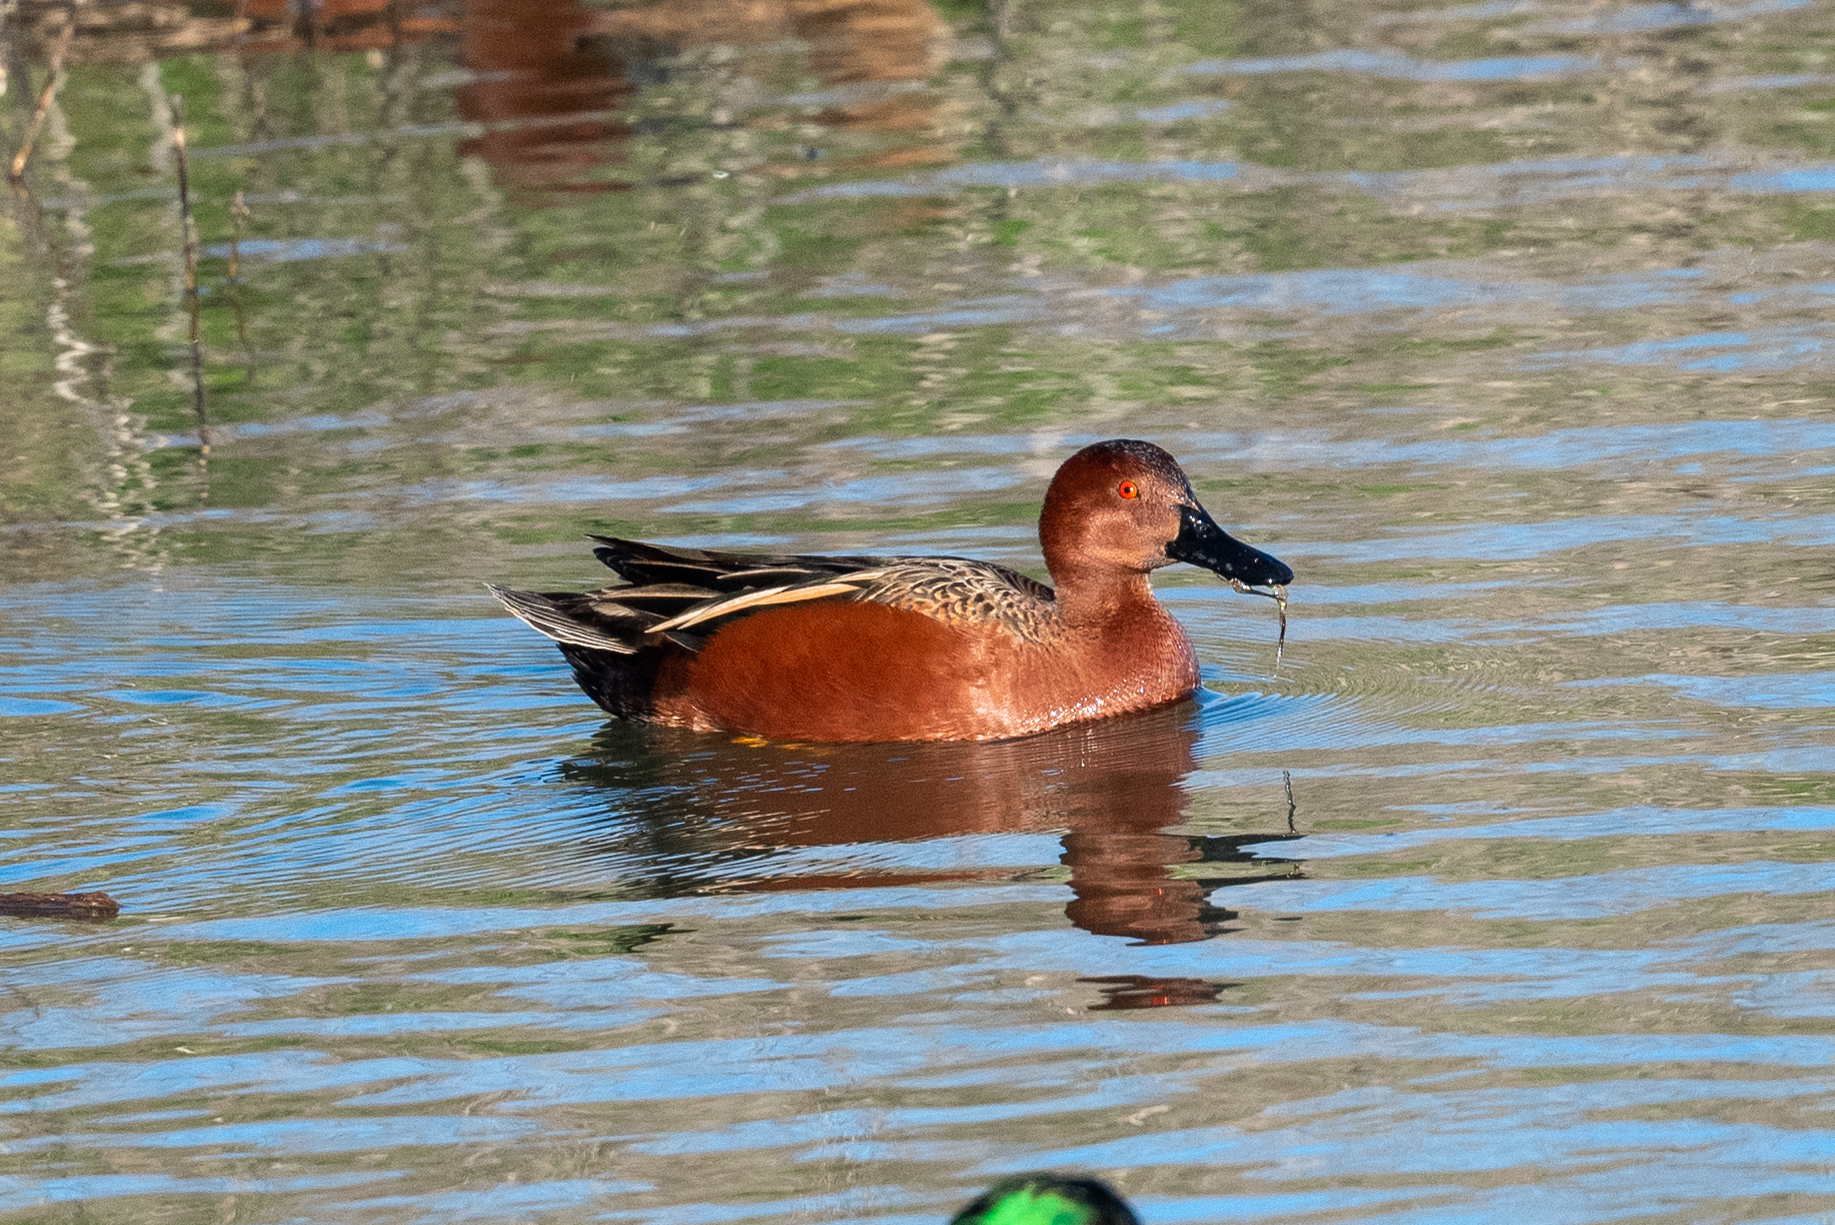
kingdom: Animalia
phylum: Chordata
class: Aves
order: Anseriformes
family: Anatidae
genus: Spatula
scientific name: Spatula cyanoptera
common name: Cinnamon teal
